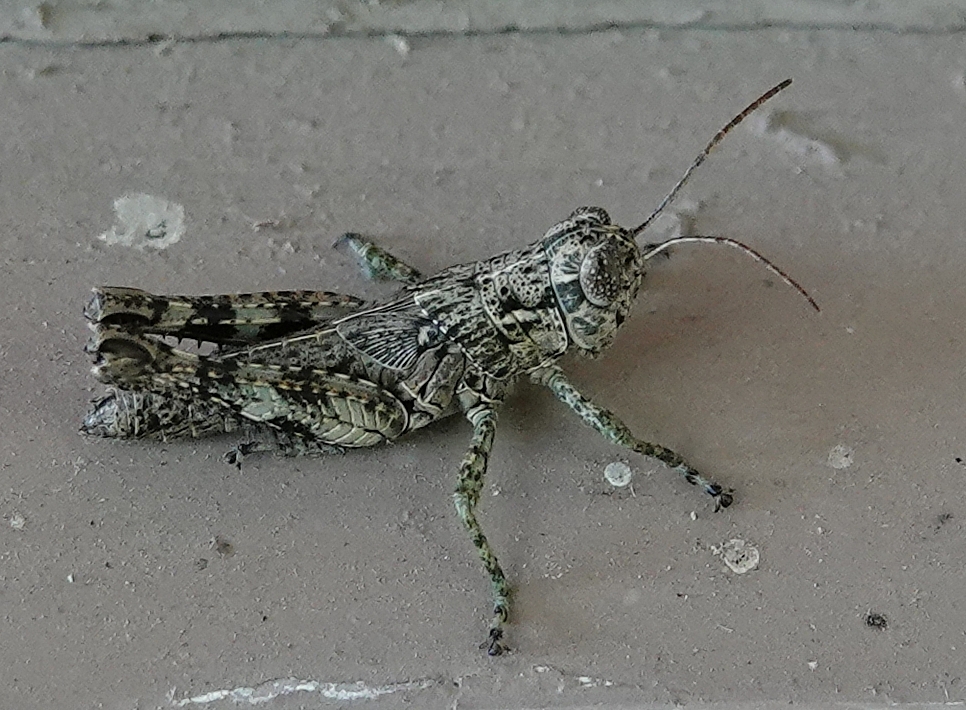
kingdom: Animalia
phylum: Arthropoda
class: Insecta
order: Orthoptera
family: Acrididae
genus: Melanoplus
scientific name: Melanoplus punctulatus
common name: Pine-tree spur-throat grasshopper
